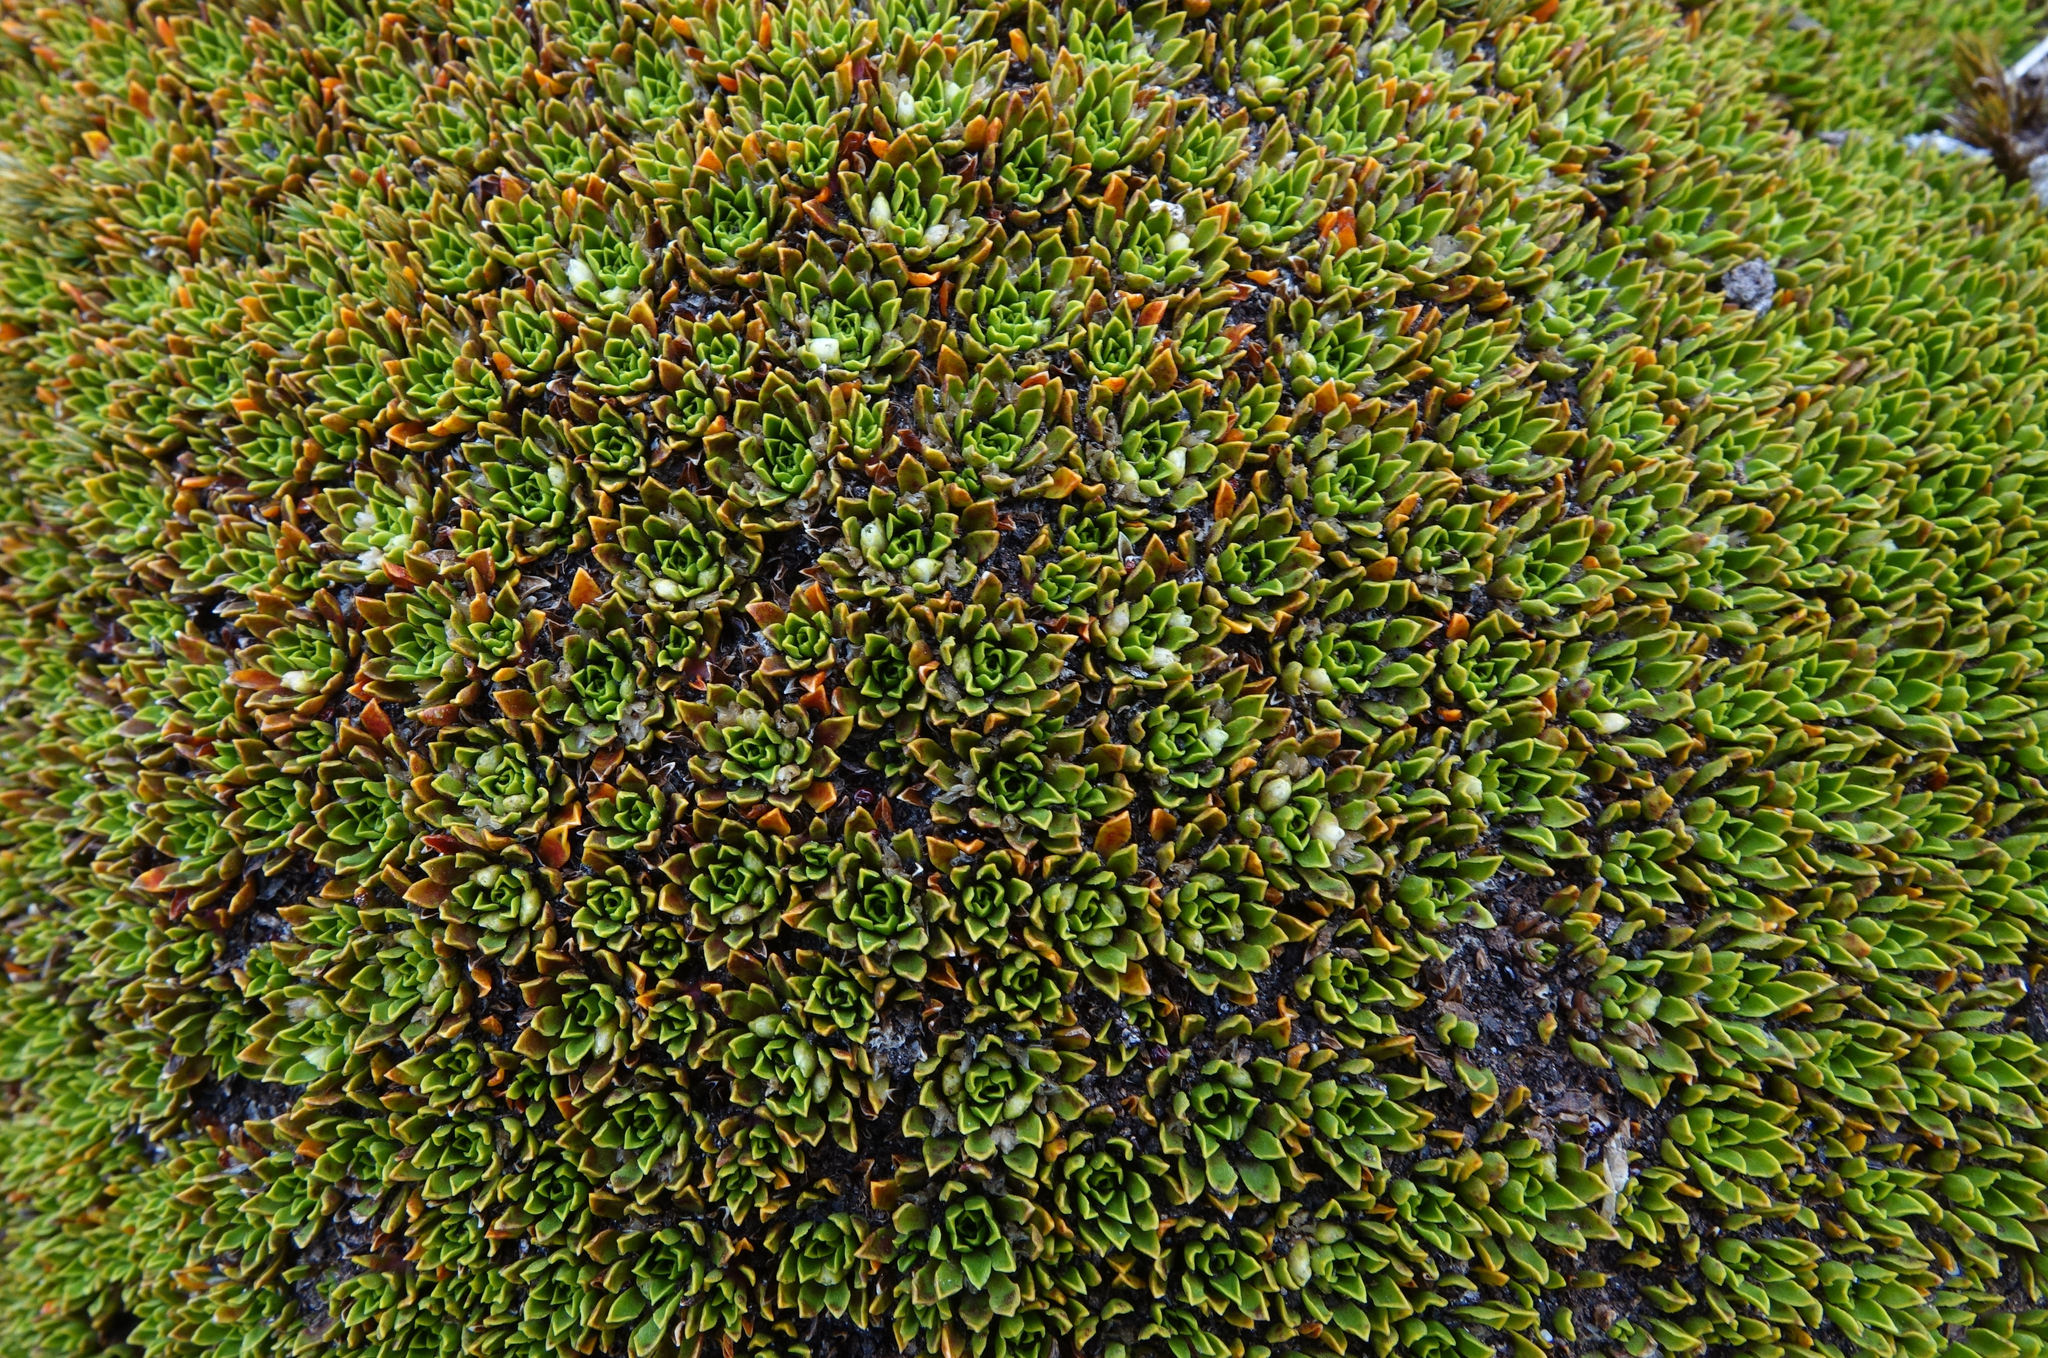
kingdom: Plantae
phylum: Tracheophyta
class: Magnoliopsida
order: Caryophyllales
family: Montiaceae
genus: Hectorella
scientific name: Hectorella caespitosa
